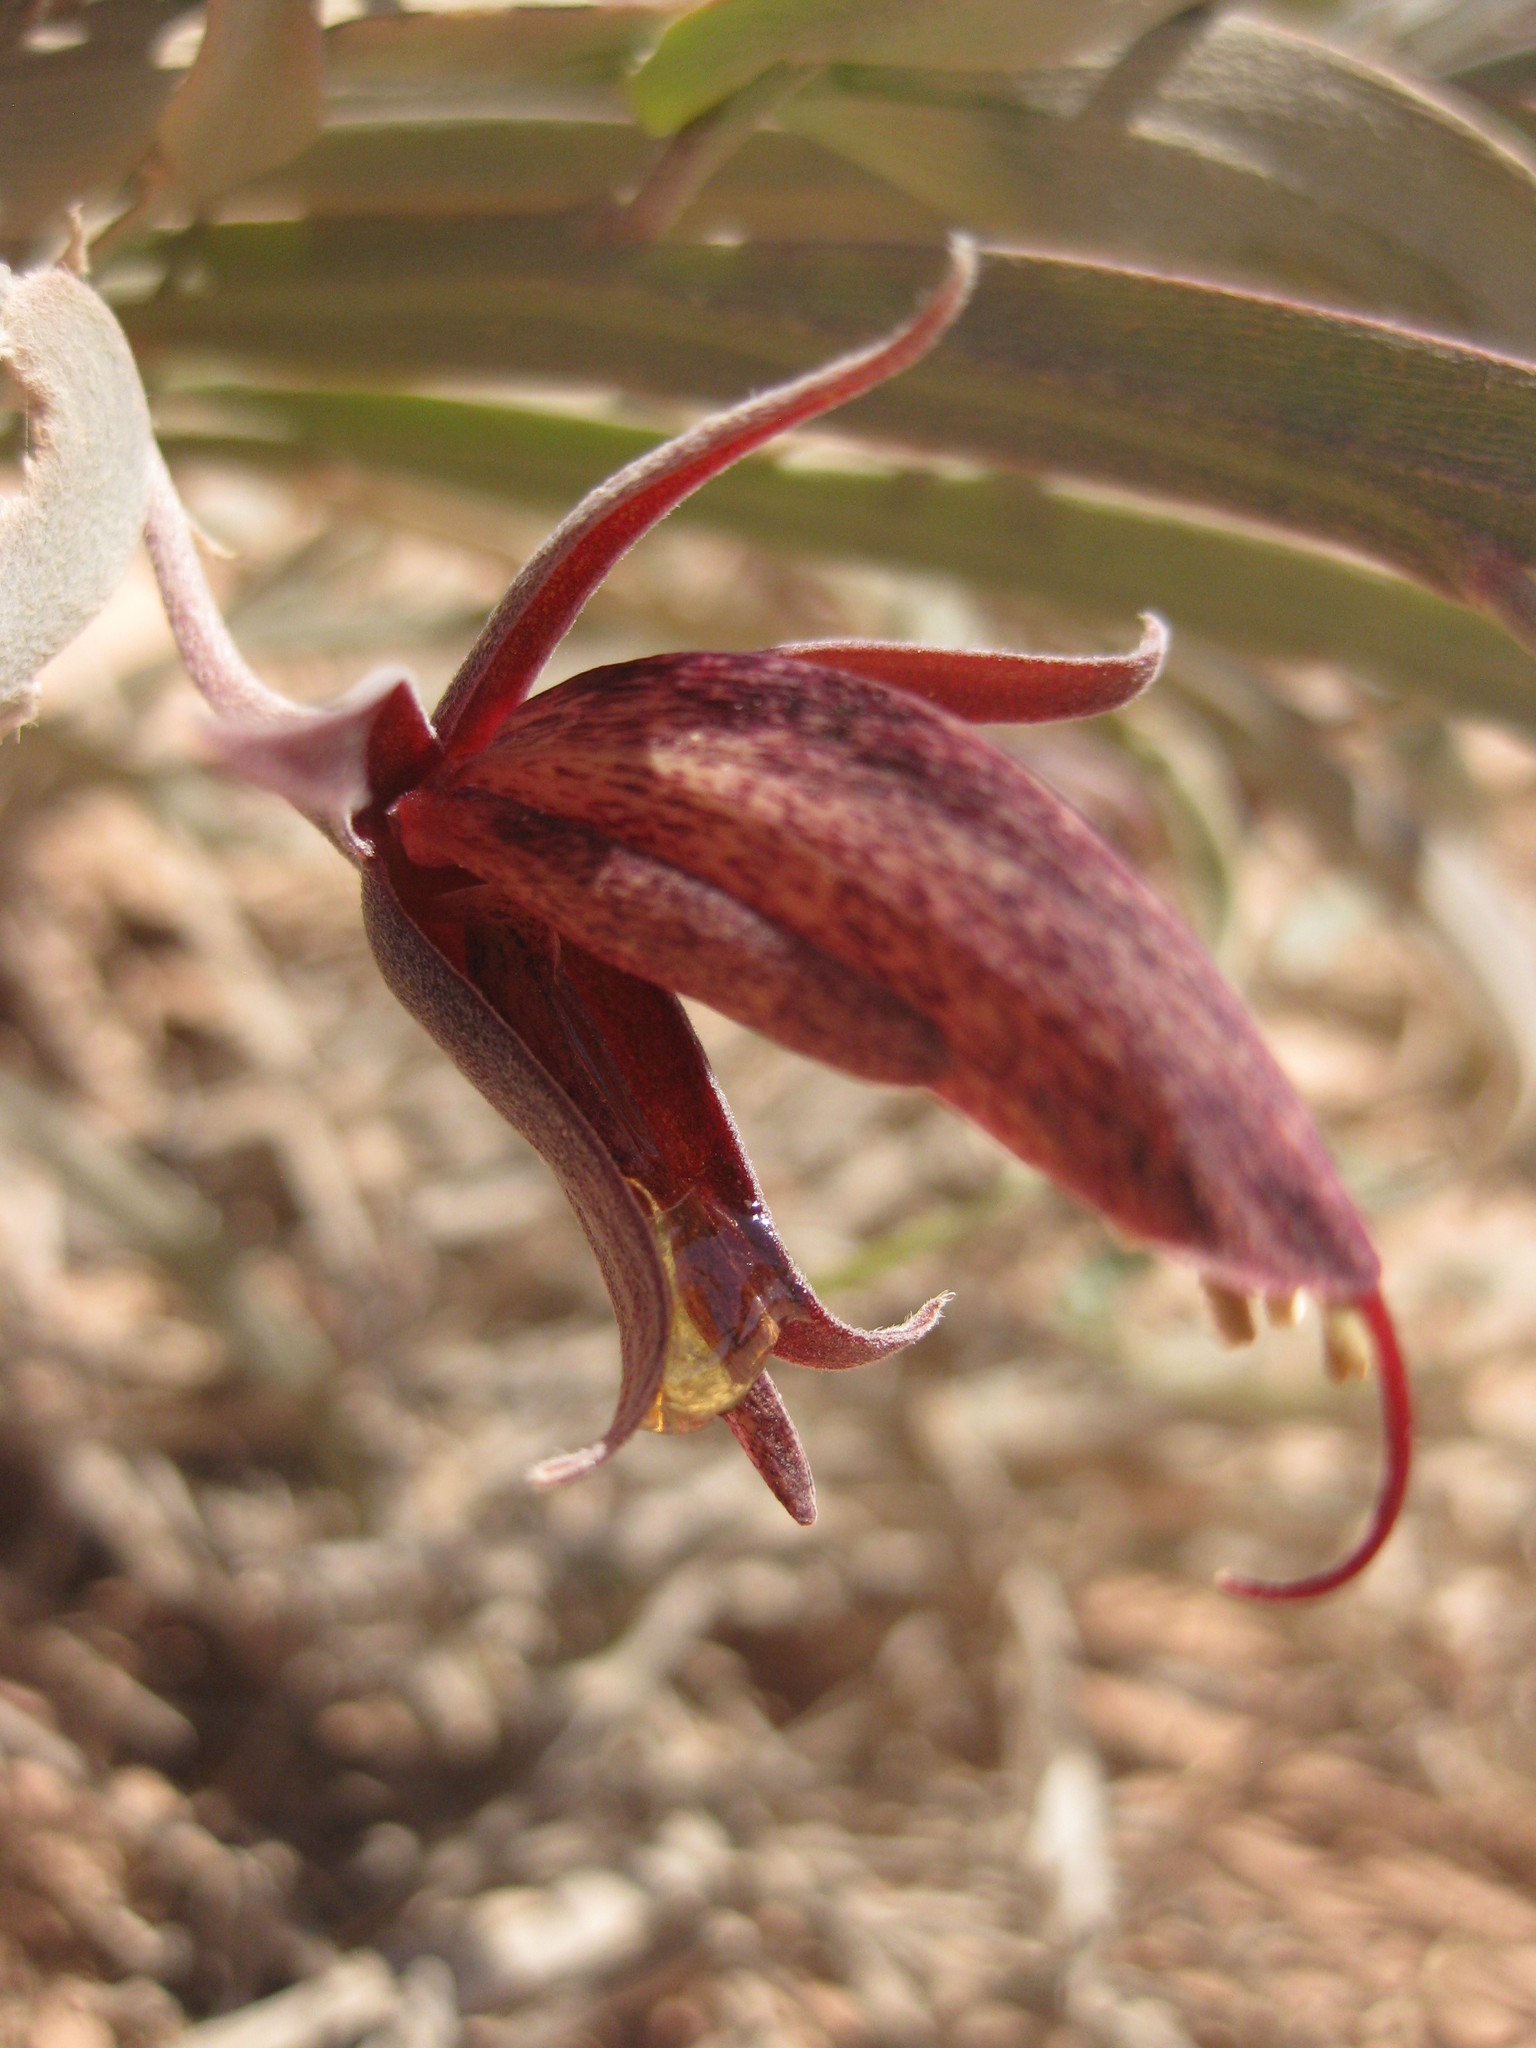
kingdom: Plantae
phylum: Tracheophyta
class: Magnoliopsida
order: Fabales
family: Fabaceae
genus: Leptosema
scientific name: Leptosema macrocarpum
